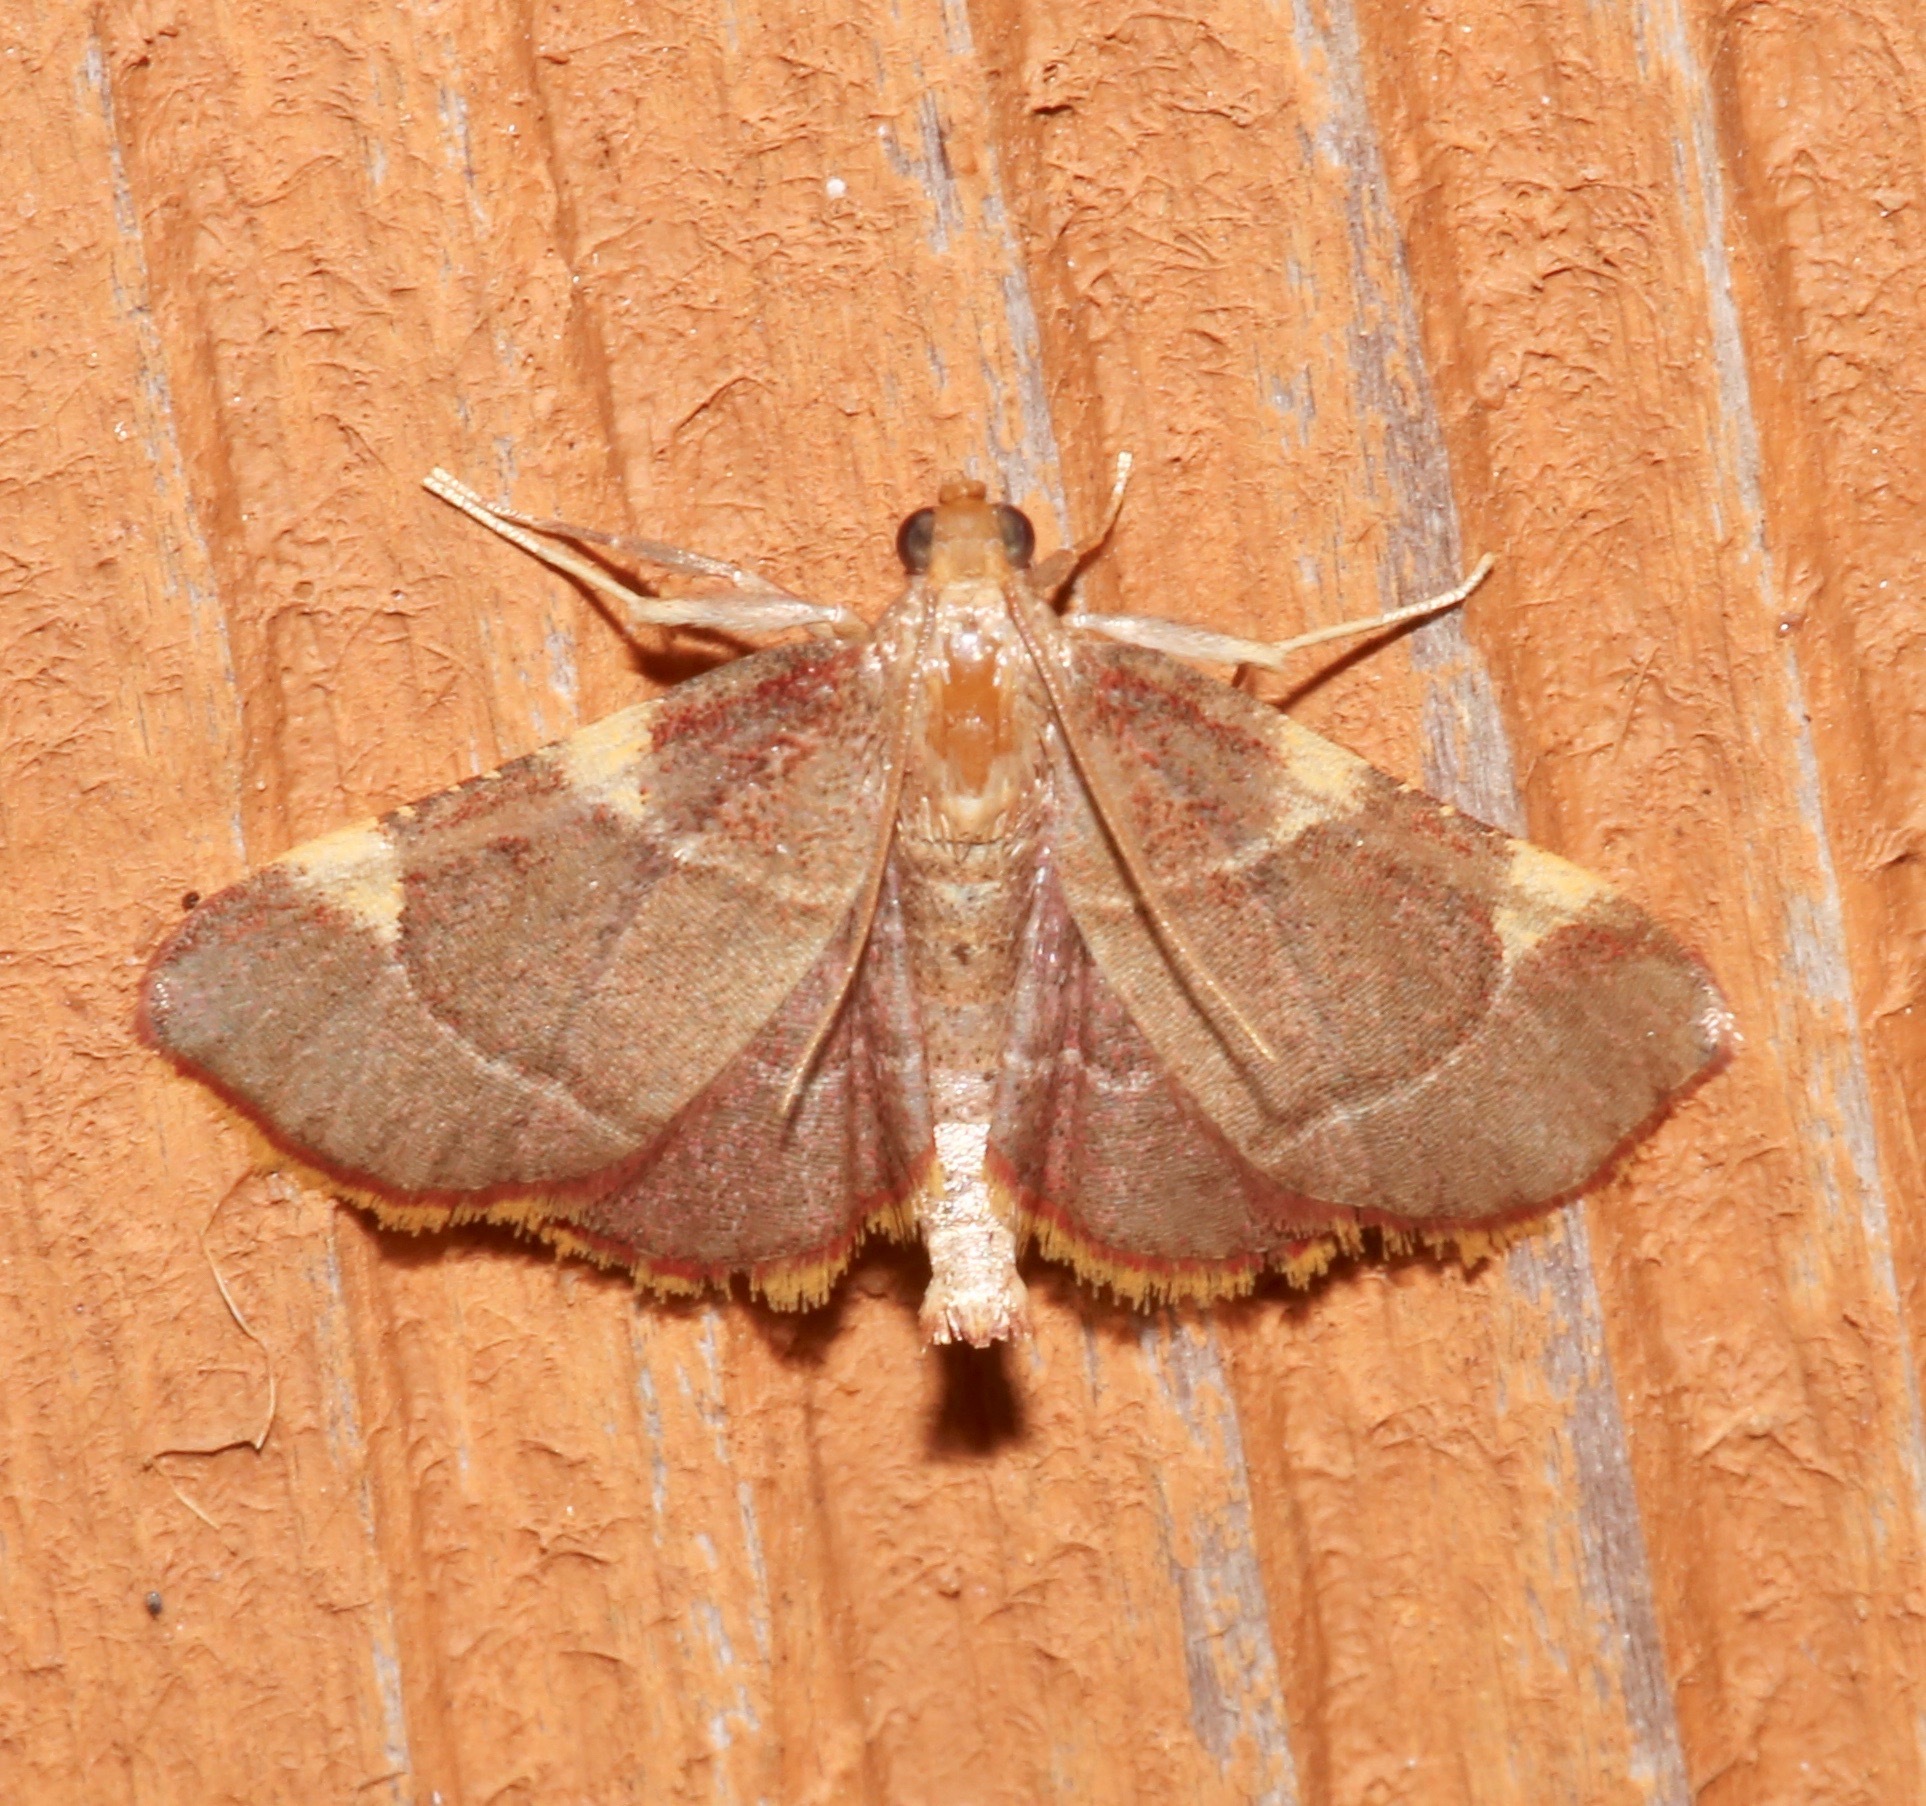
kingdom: Animalia
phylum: Arthropoda
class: Insecta
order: Lepidoptera
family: Pyralidae
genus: Hypsopygia
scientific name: Hypsopygia olinalis
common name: Yellow-fringed dolichomia moth
